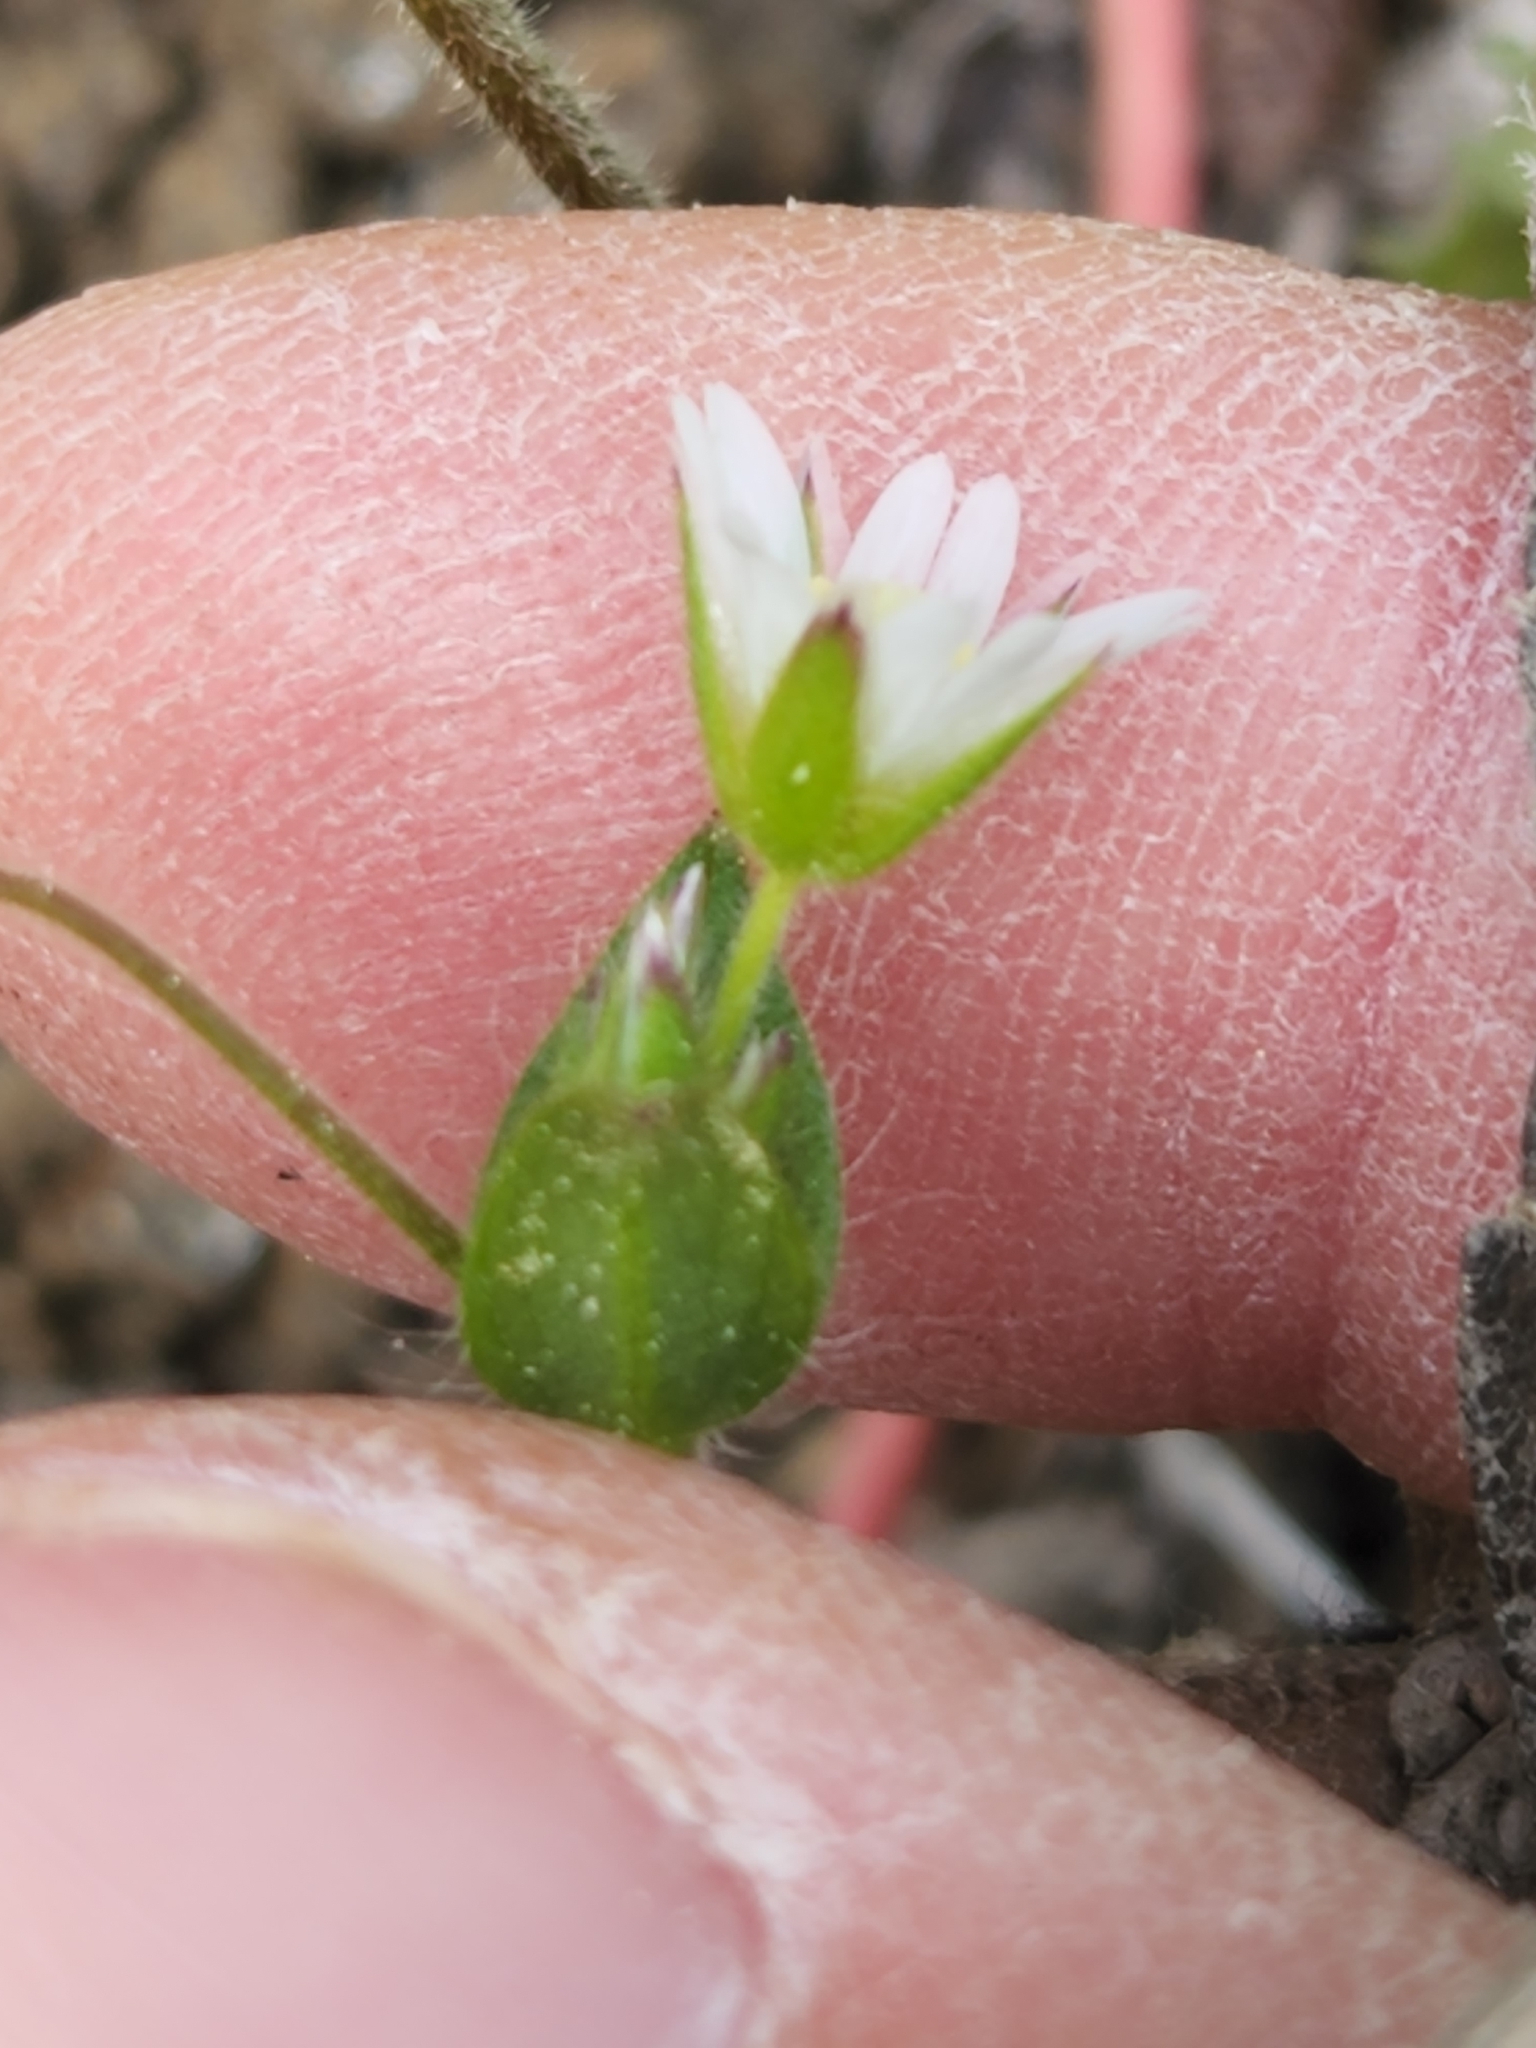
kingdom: Plantae
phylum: Tracheophyta
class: Magnoliopsida
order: Caryophyllales
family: Caryophyllaceae
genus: Cerastium
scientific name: Cerastium fontanum
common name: Common mouse-ear
